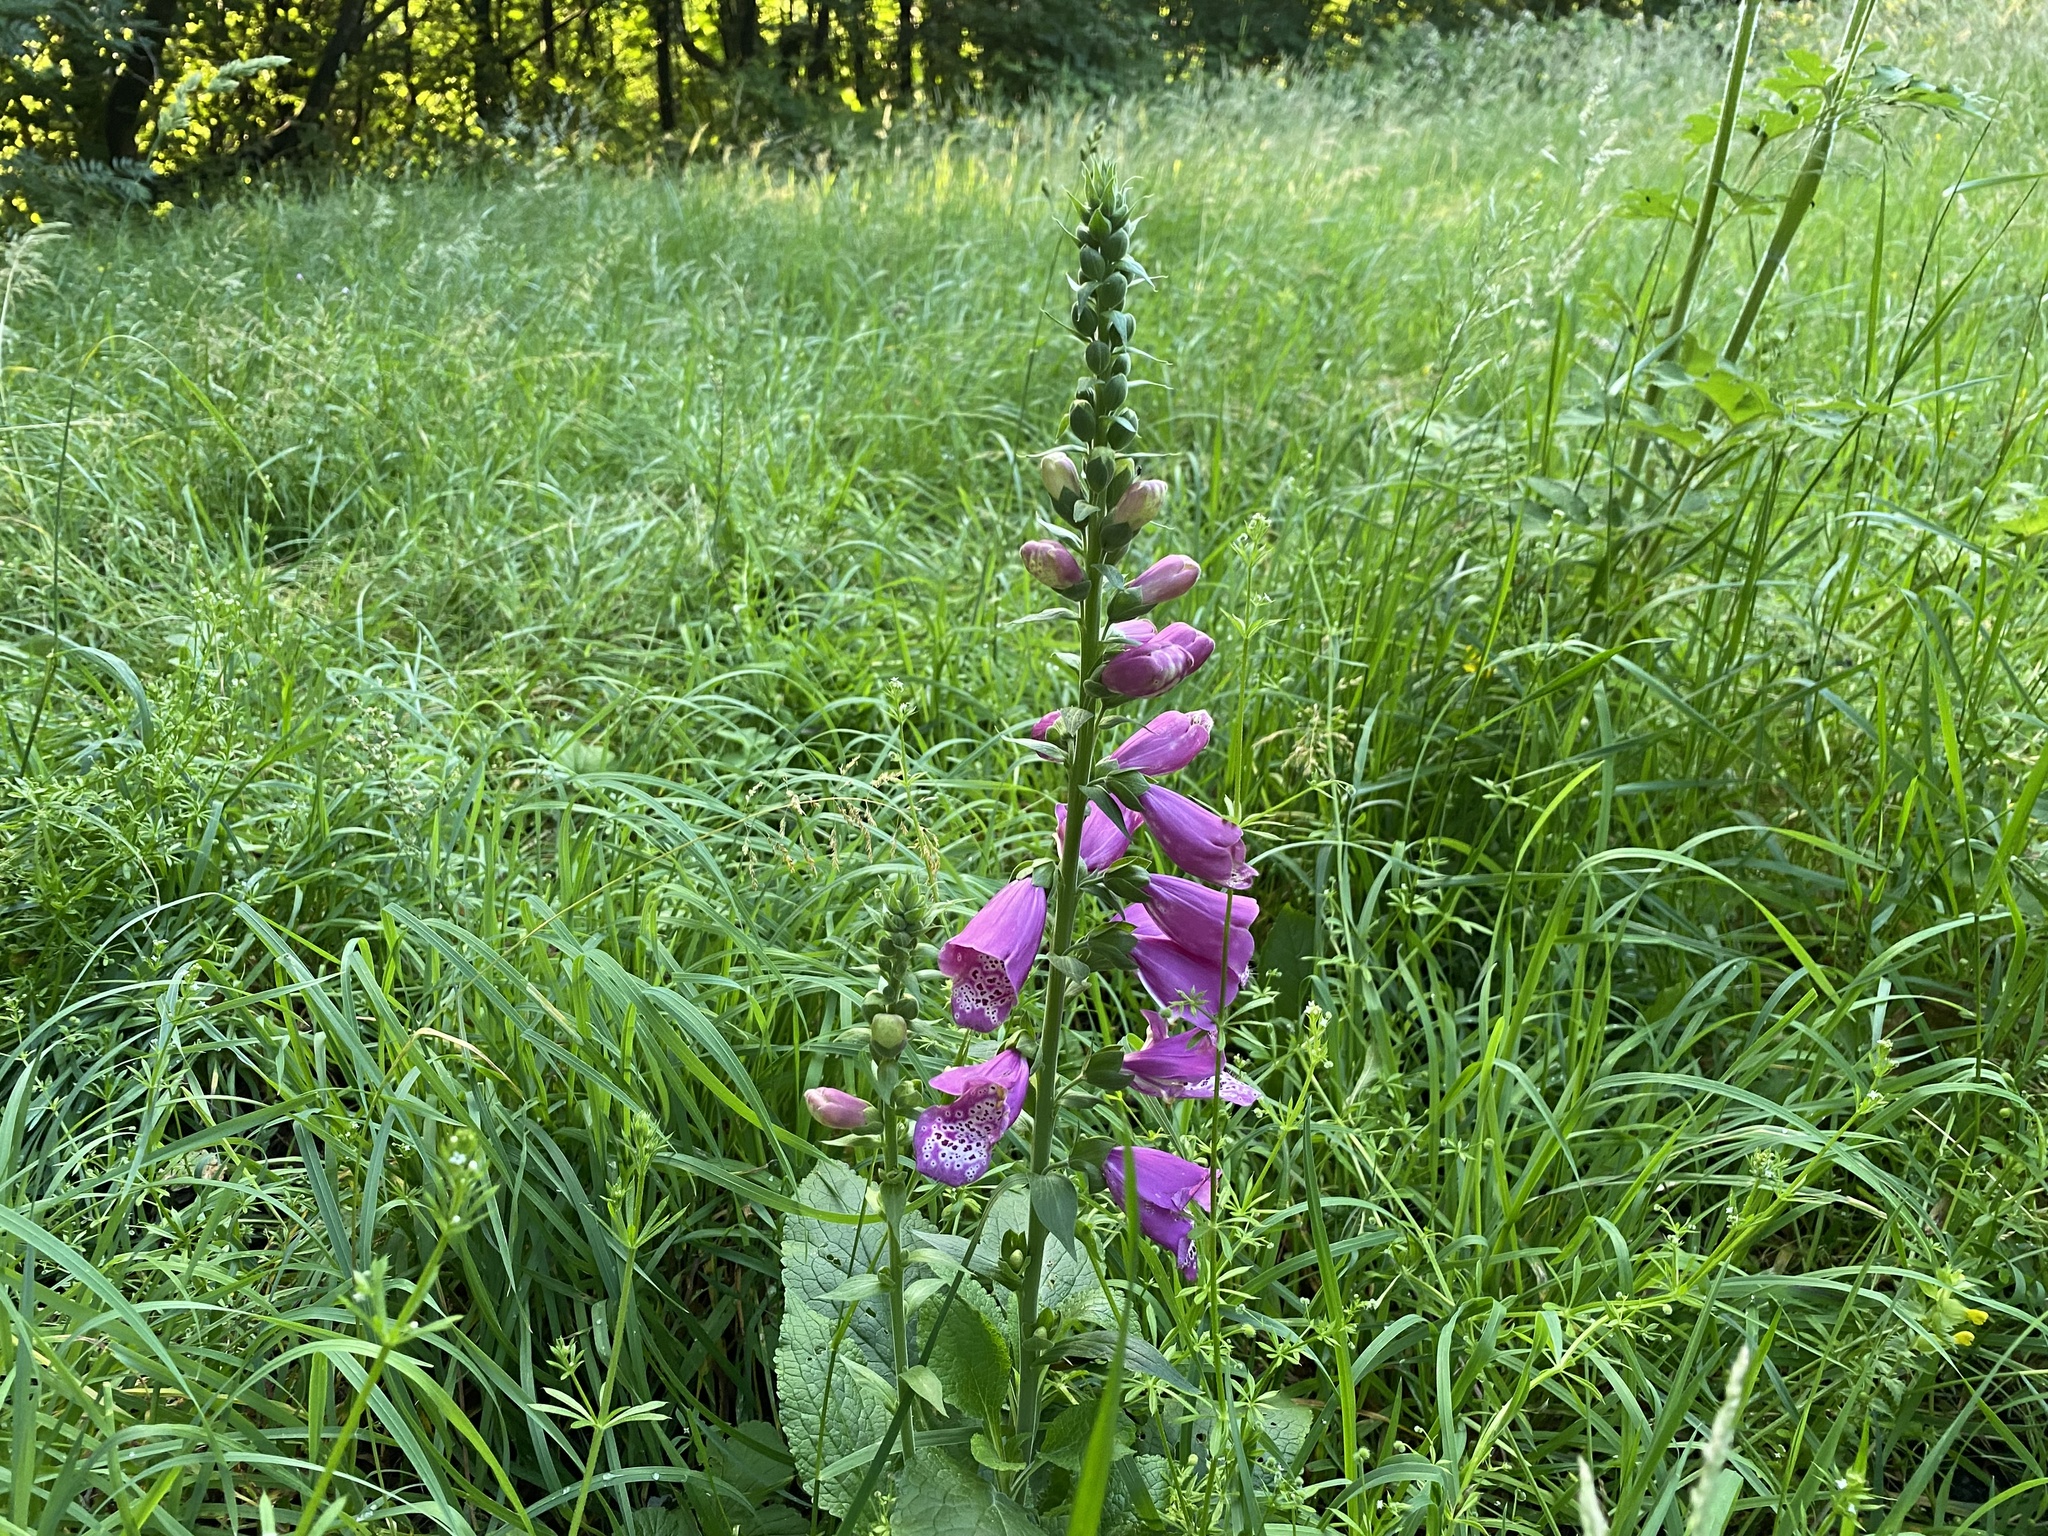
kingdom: Plantae
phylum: Tracheophyta
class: Magnoliopsida
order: Lamiales
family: Plantaginaceae
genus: Digitalis
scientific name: Digitalis purpurea
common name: Foxglove
